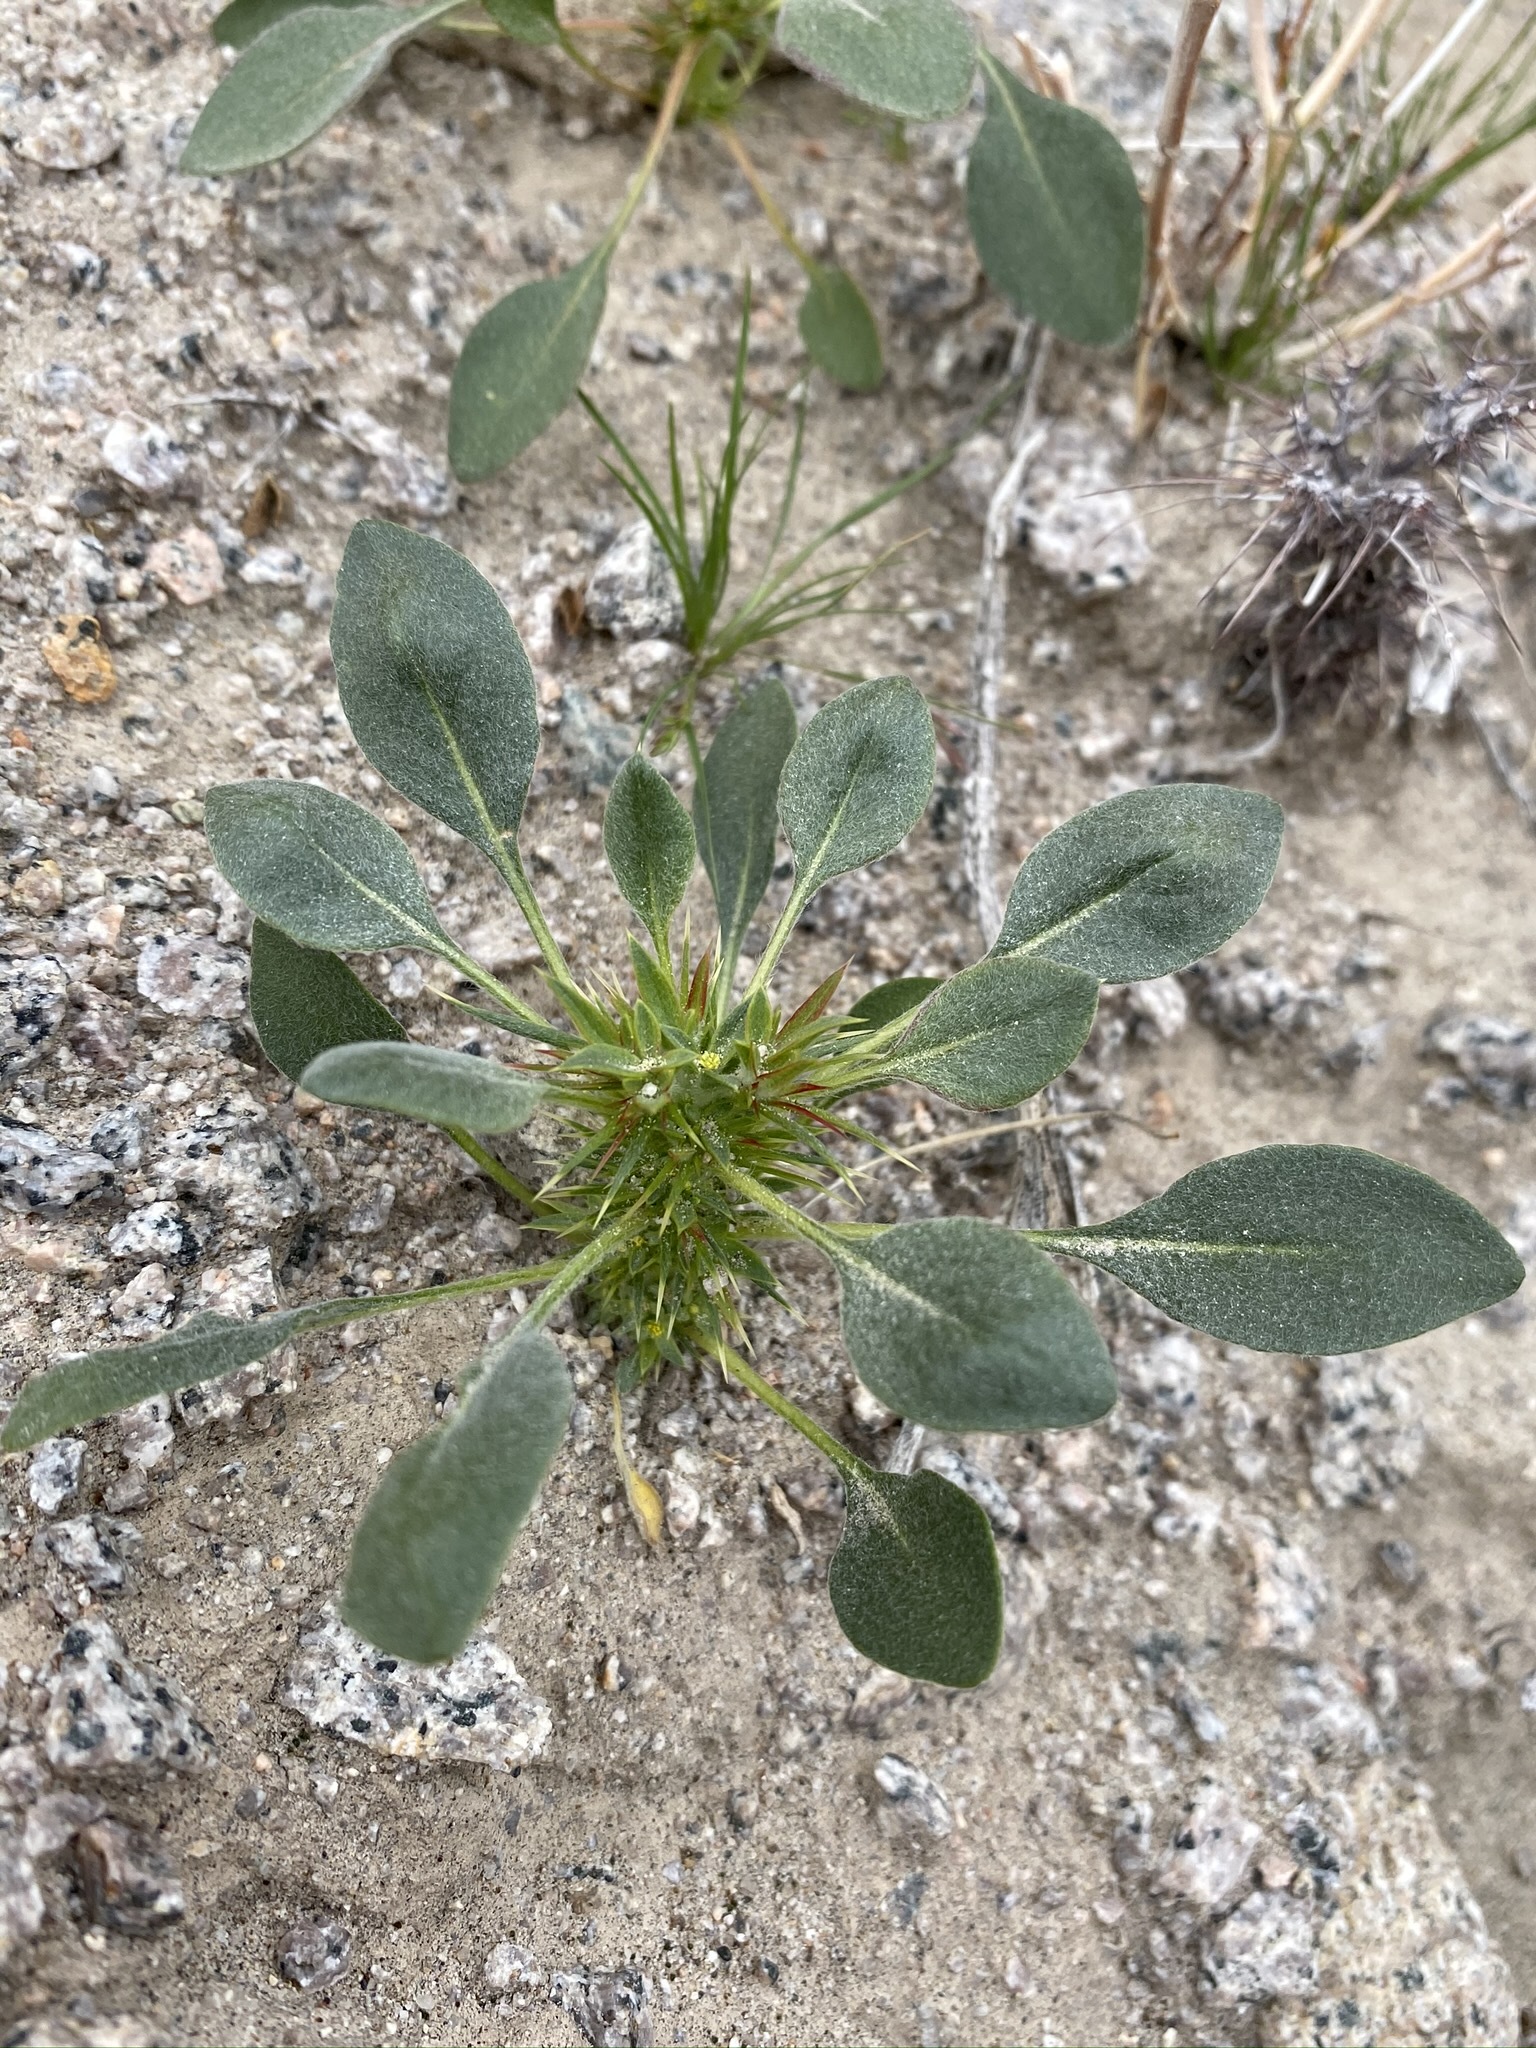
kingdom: Plantae
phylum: Tracheophyta
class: Magnoliopsida
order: Caryophyllales
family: Polygonaceae
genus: Chorizanthe
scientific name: Chorizanthe rigida
